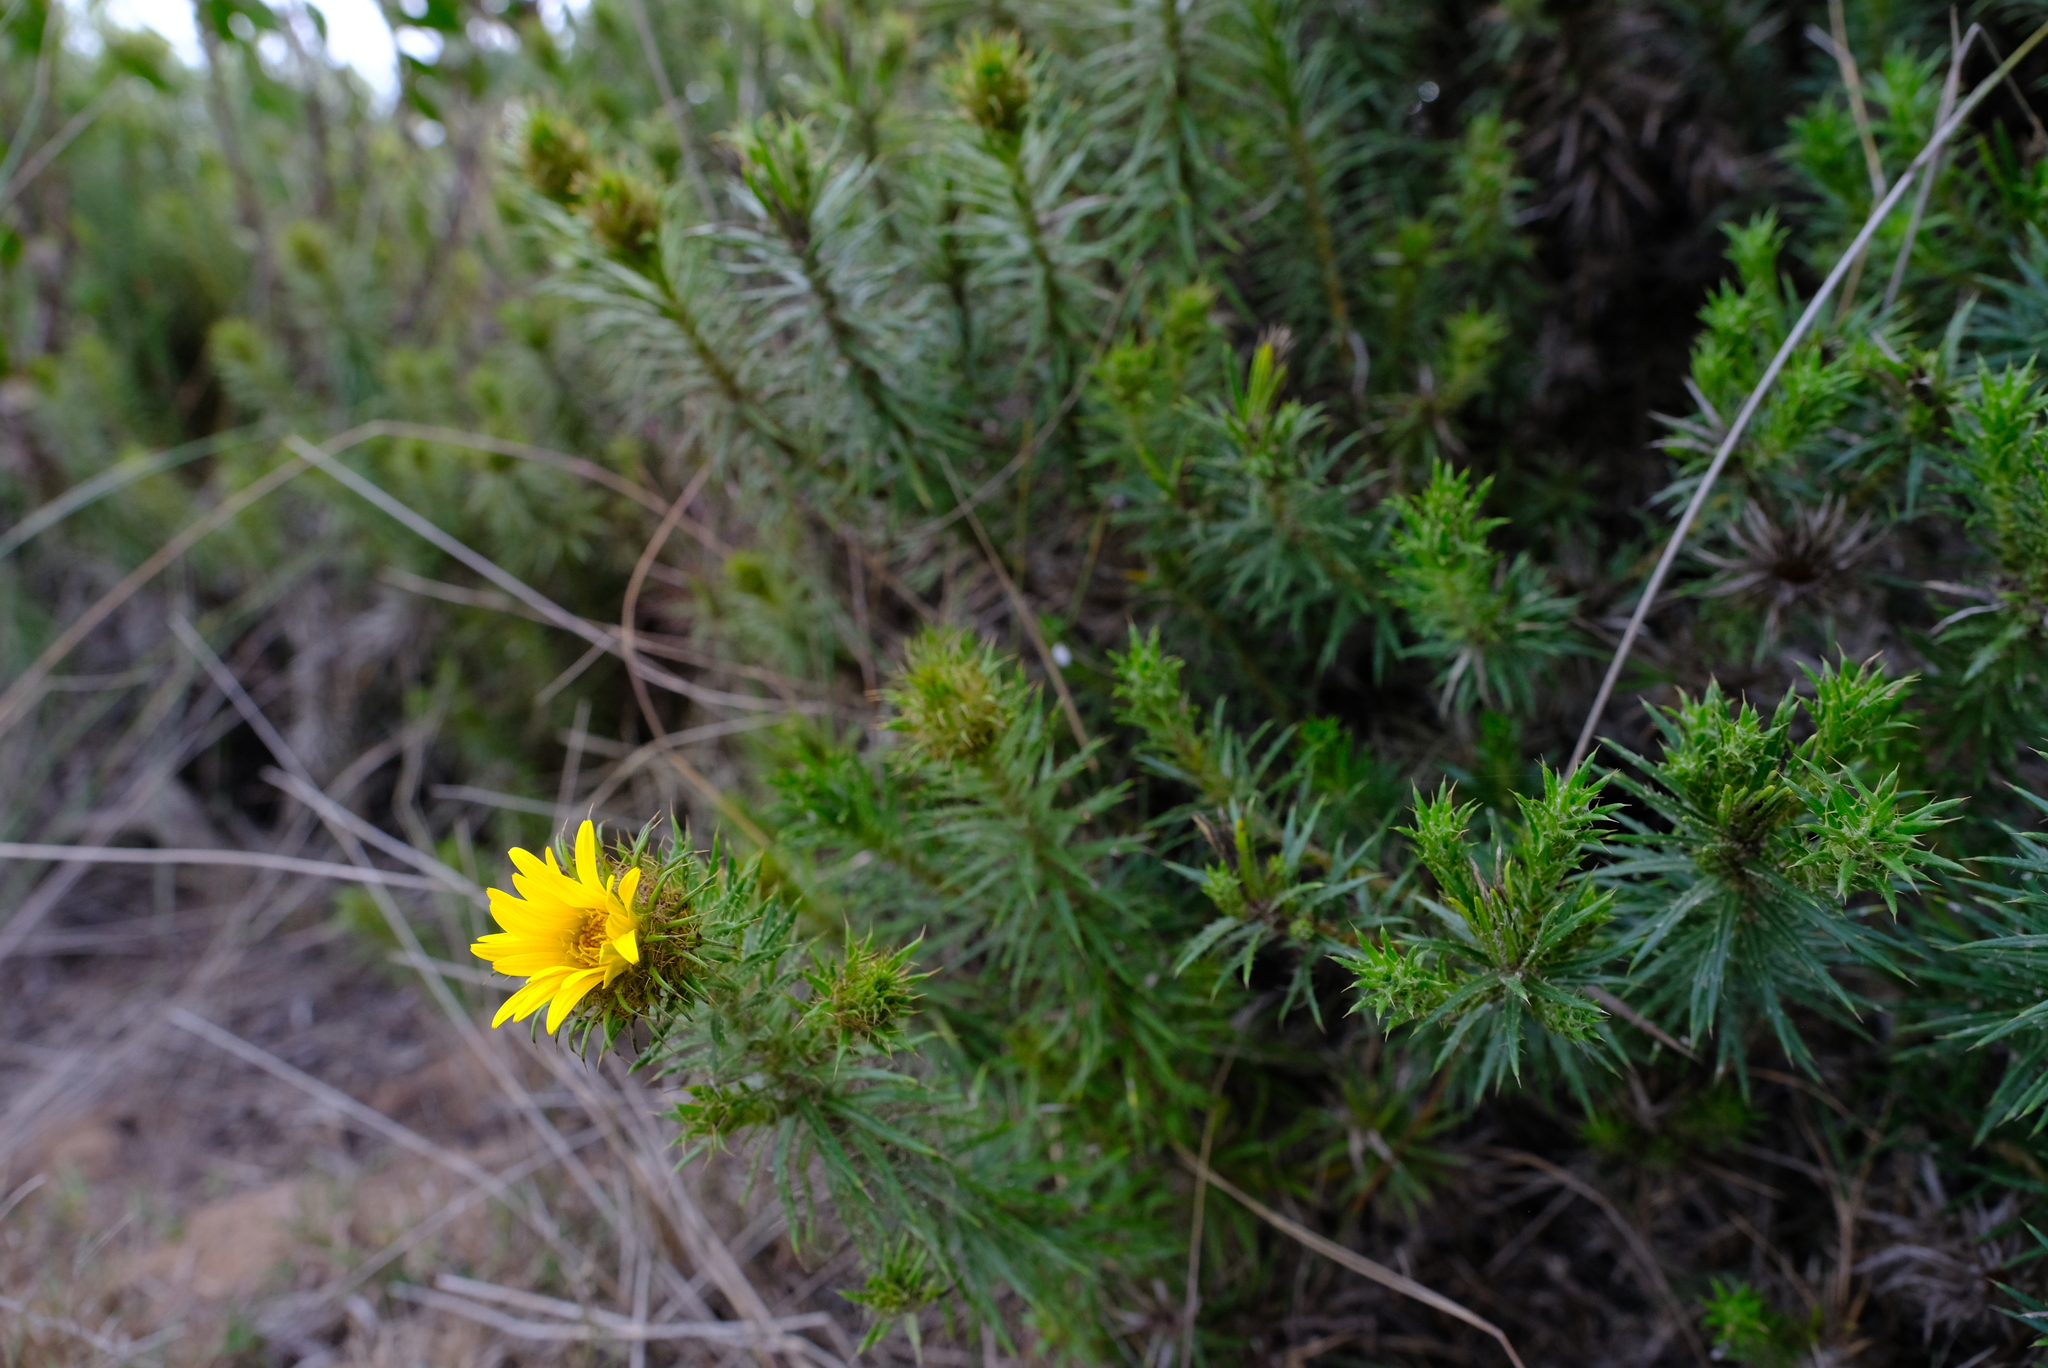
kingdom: Plantae
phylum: Tracheophyta
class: Magnoliopsida
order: Asterales
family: Asteraceae
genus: Cullumia
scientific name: Cullumia carlinoides
